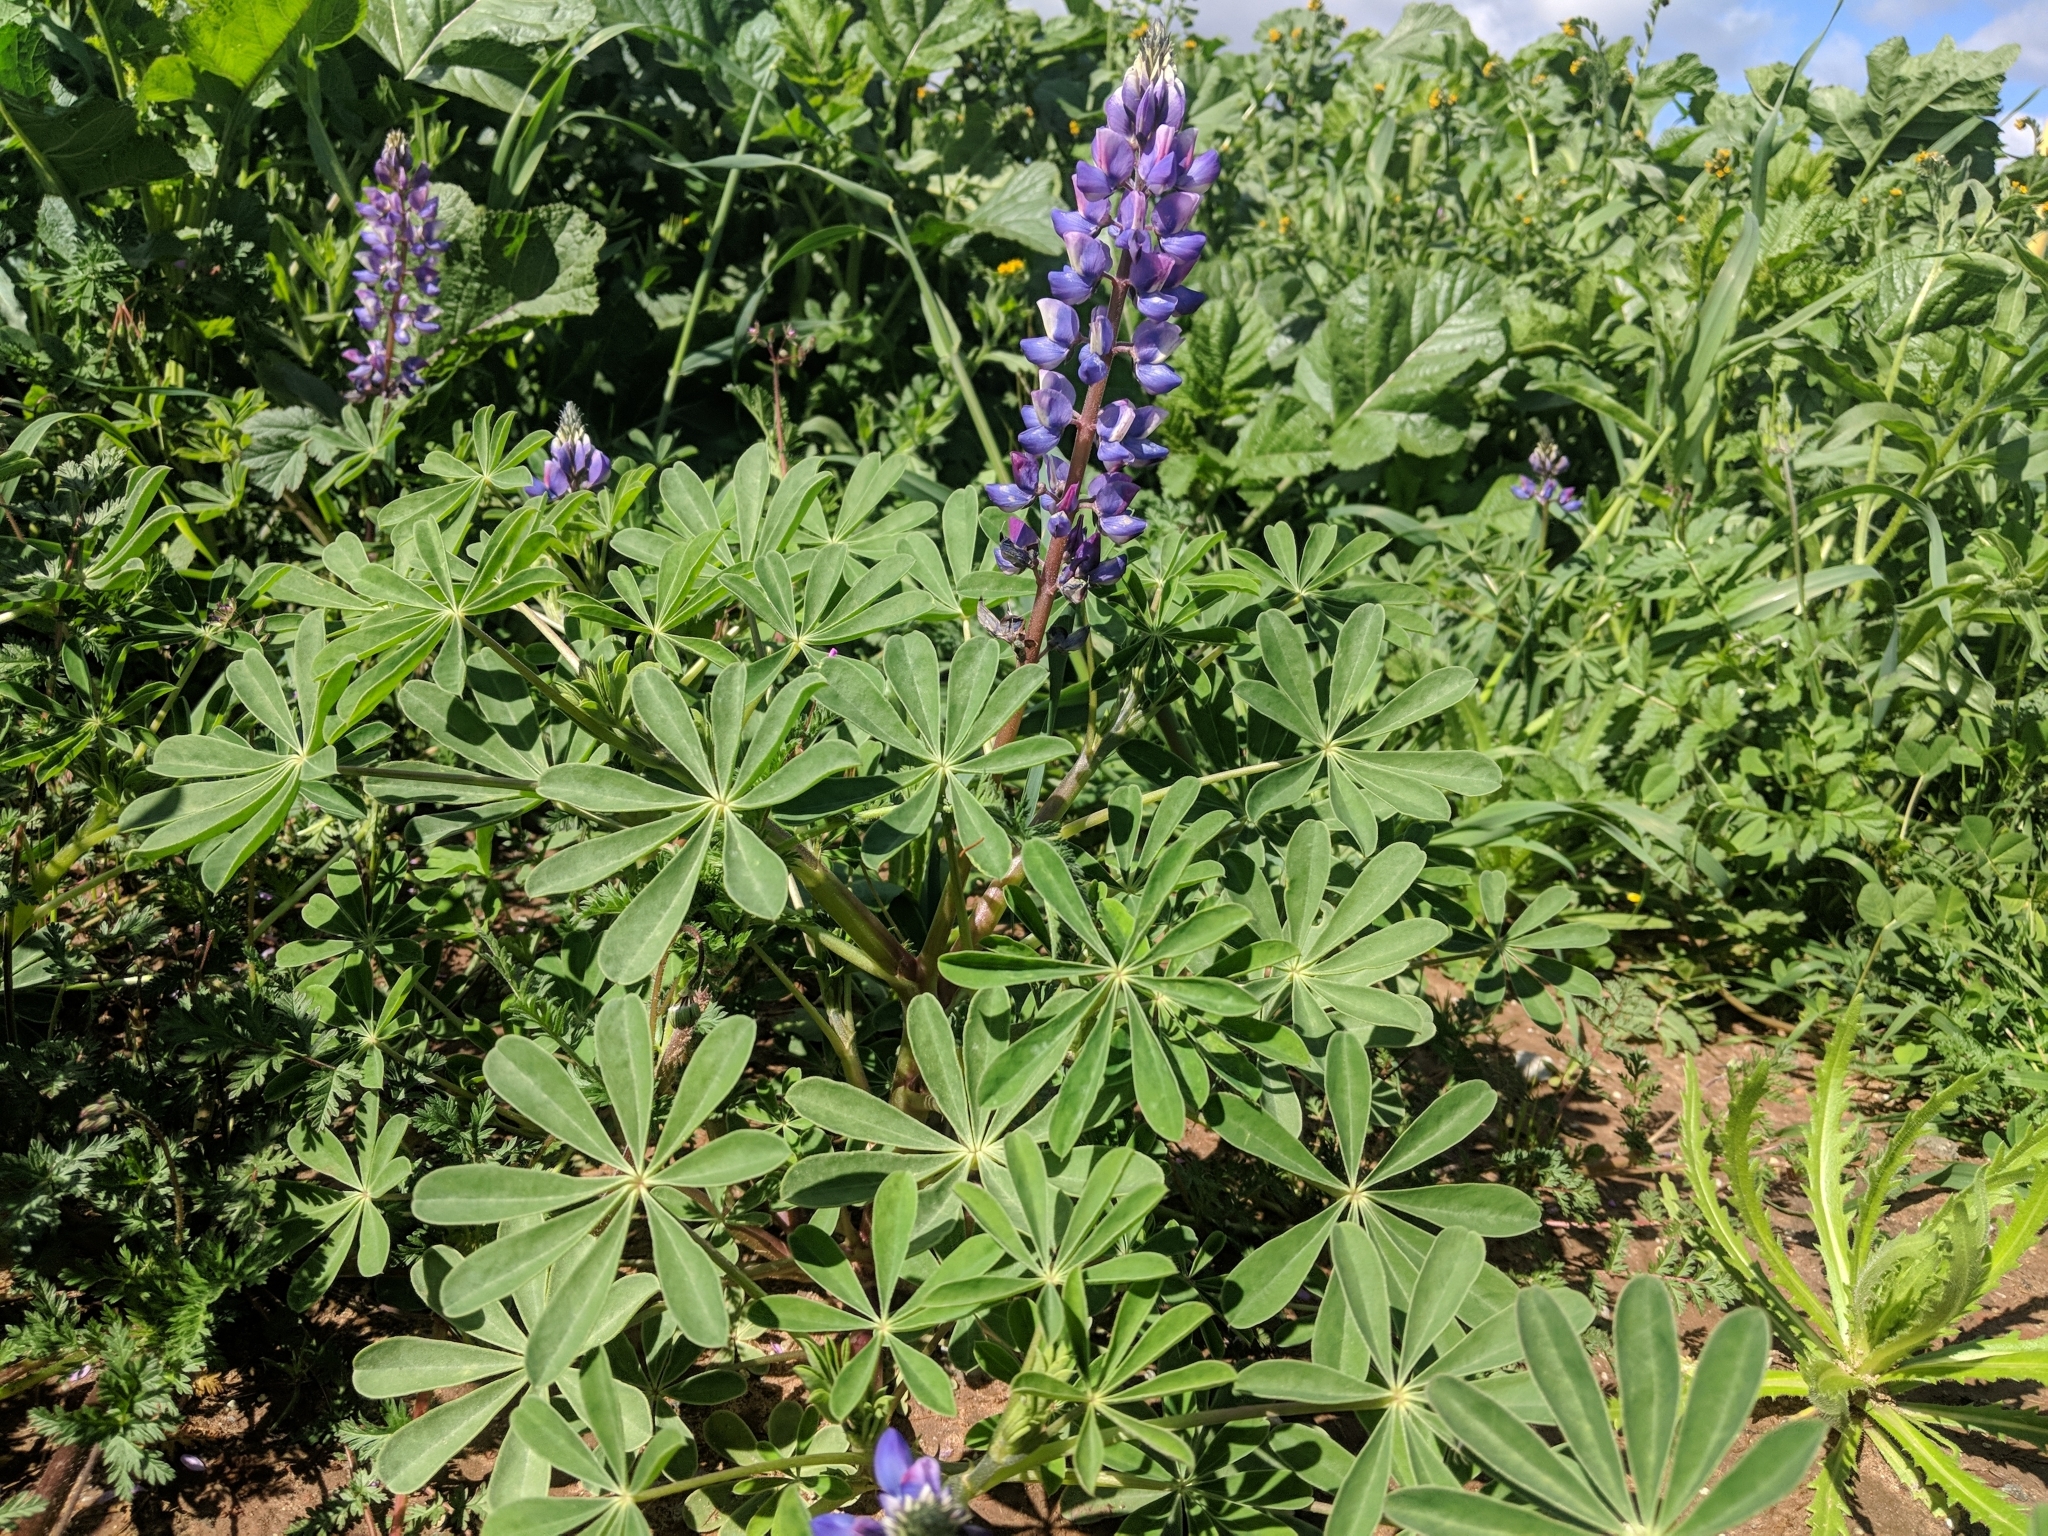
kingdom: Plantae
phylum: Tracheophyta
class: Magnoliopsida
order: Fabales
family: Fabaceae
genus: Lupinus
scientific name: Lupinus succulentus
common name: Arroyo lupine
